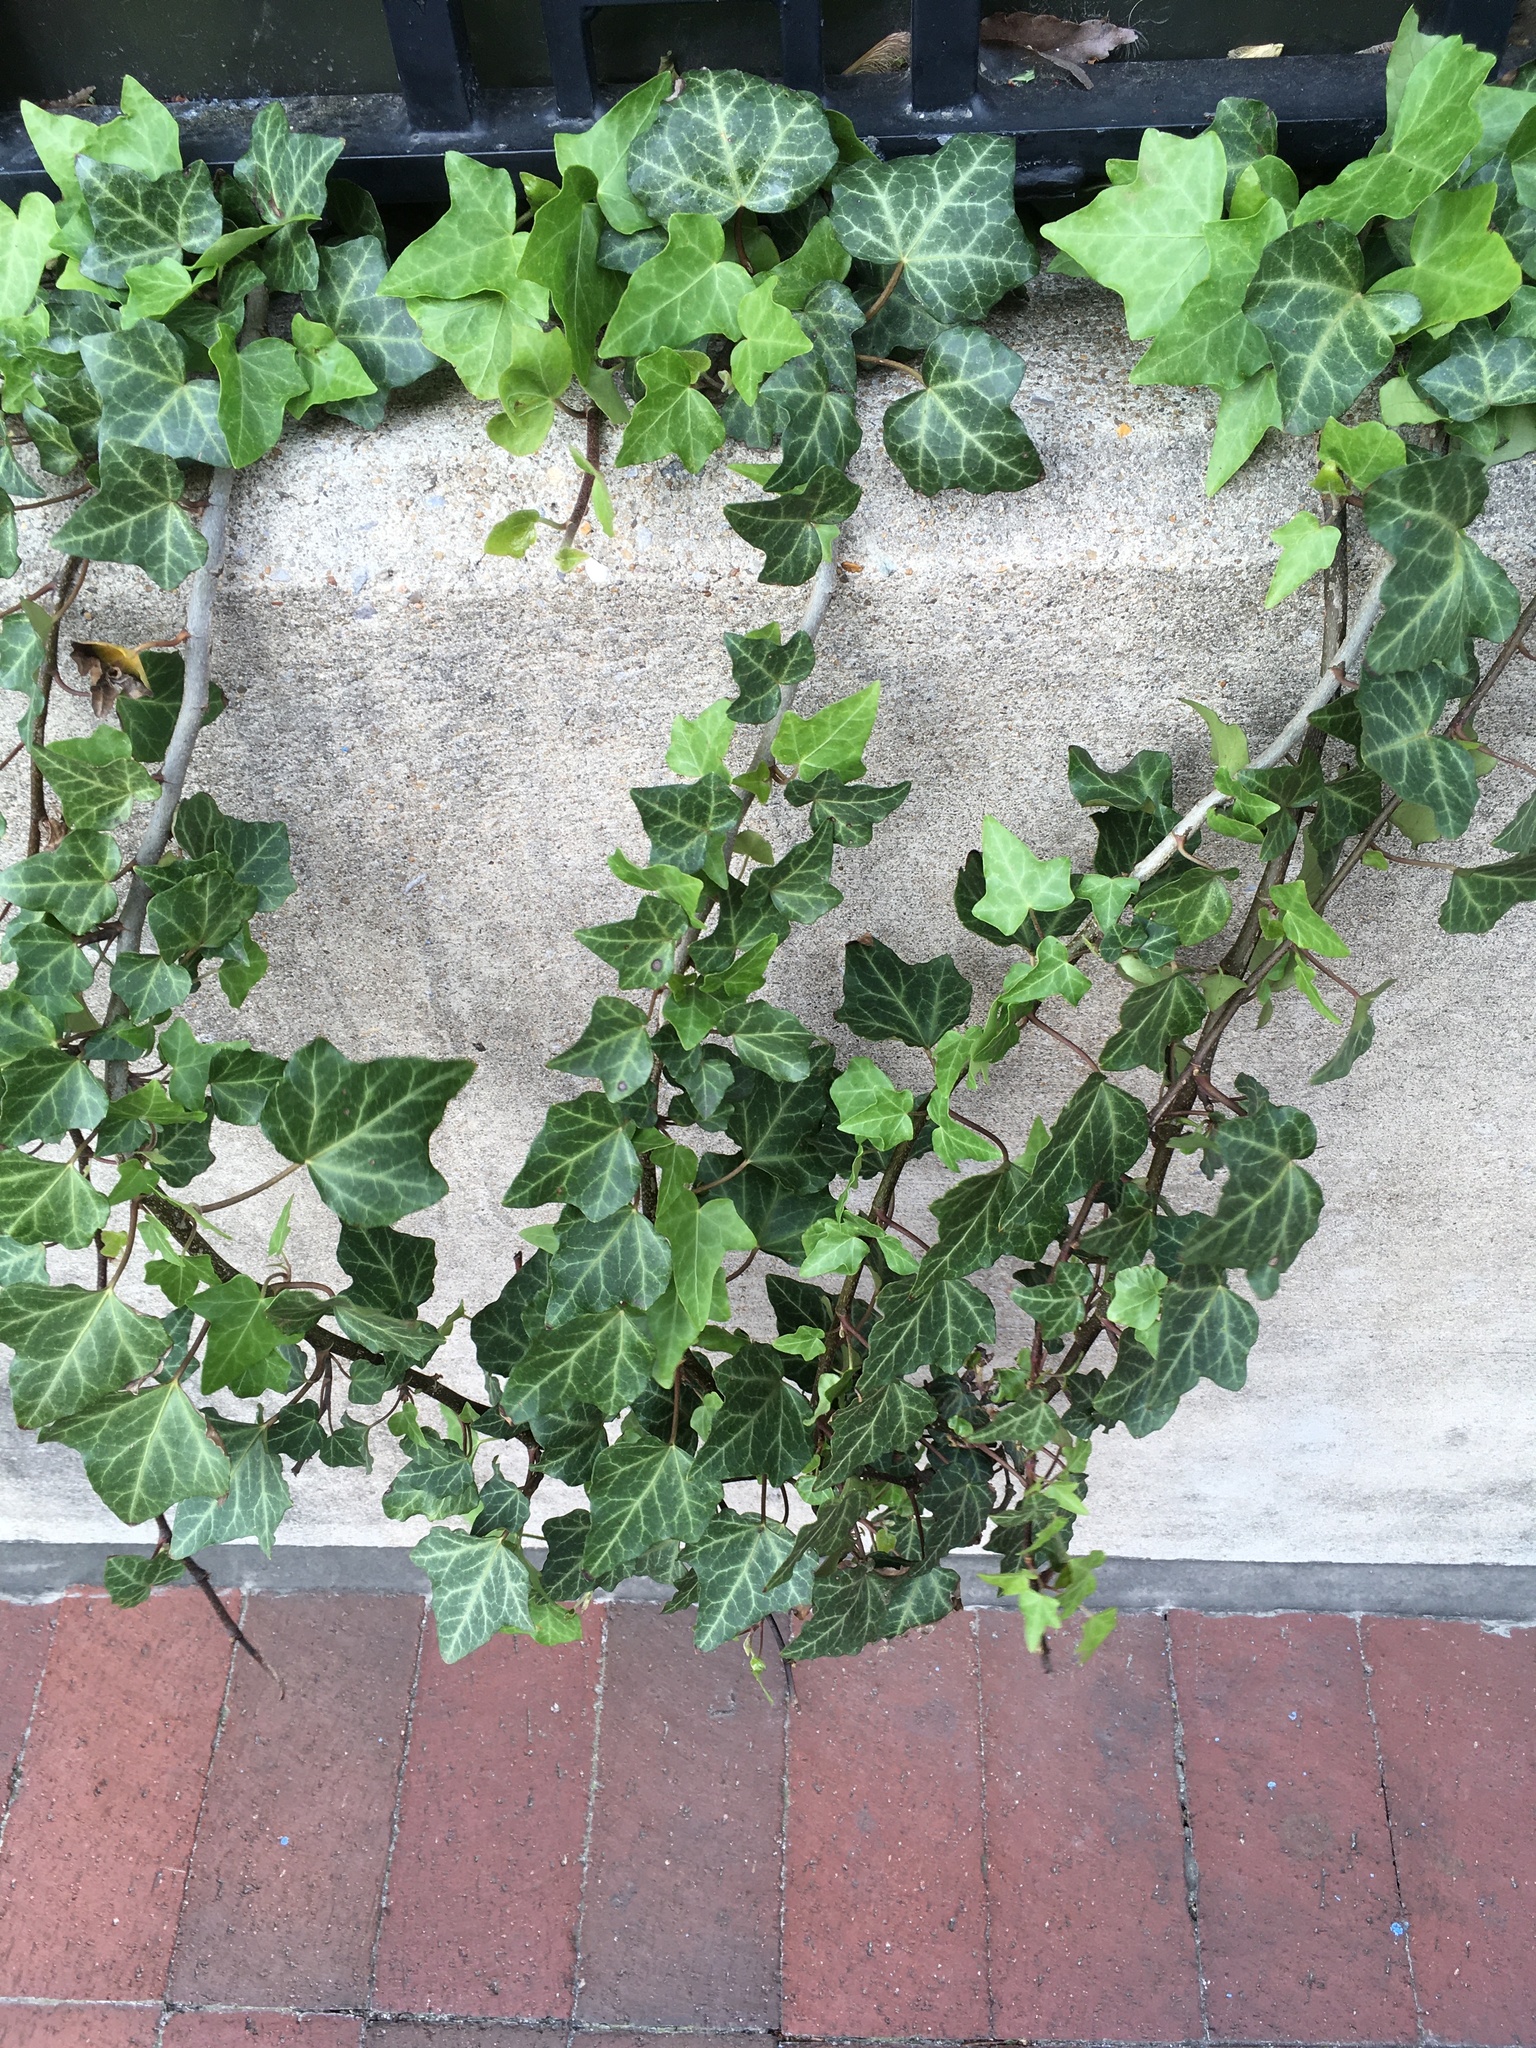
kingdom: Plantae
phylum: Tracheophyta
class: Magnoliopsida
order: Apiales
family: Araliaceae
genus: Hedera
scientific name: Hedera helix
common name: Ivy
